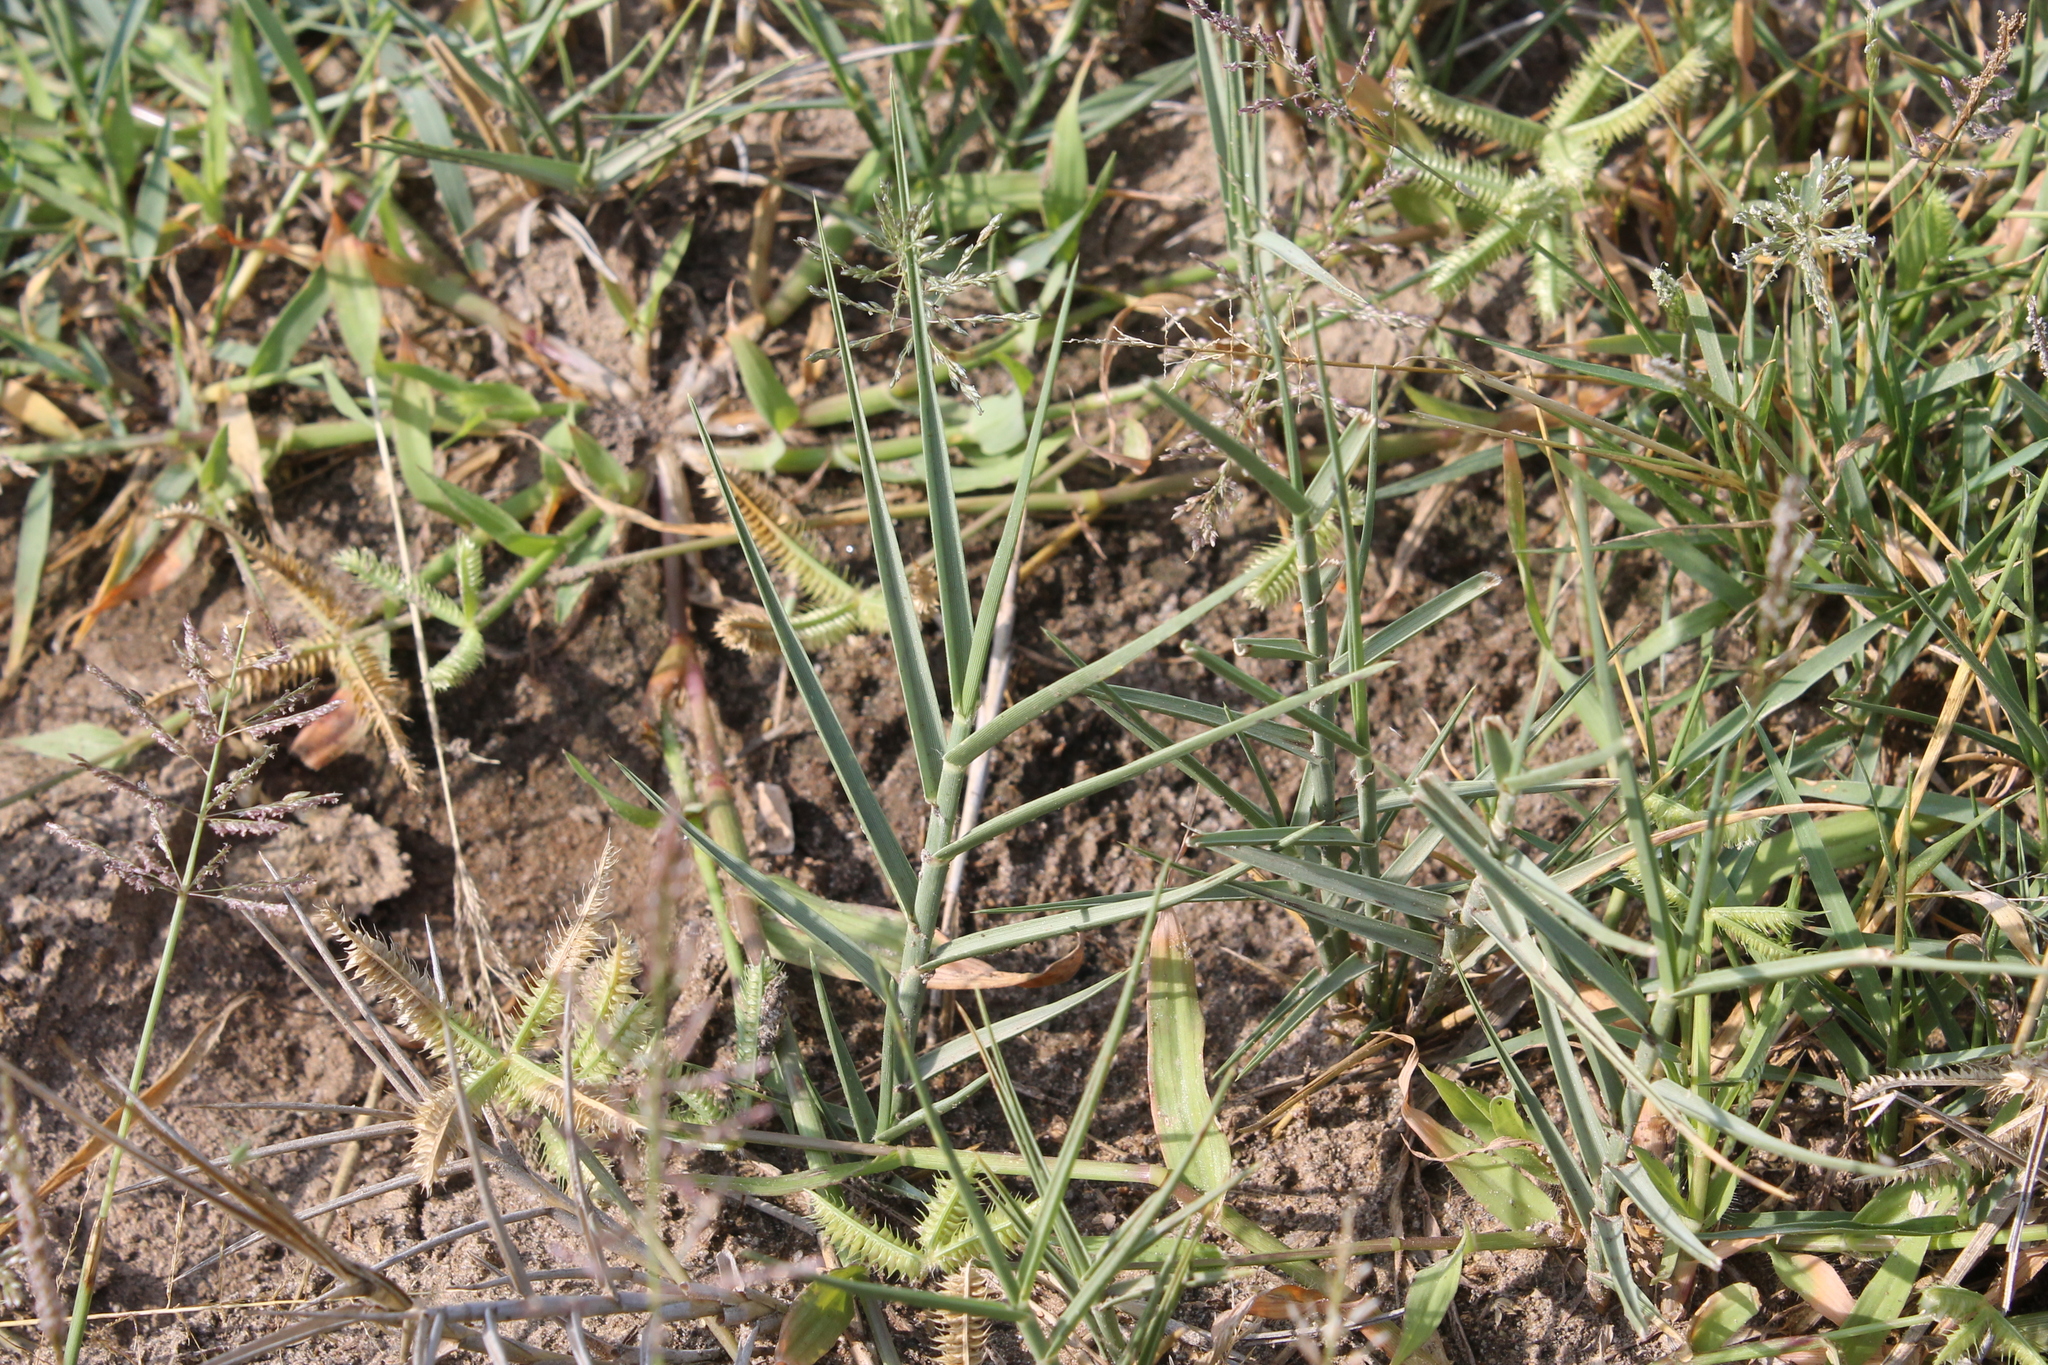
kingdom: Plantae
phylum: Tracheophyta
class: Liliopsida
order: Poales
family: Poaceae
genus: Distichlis
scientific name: Distichlis spicata
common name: Saltgrass
